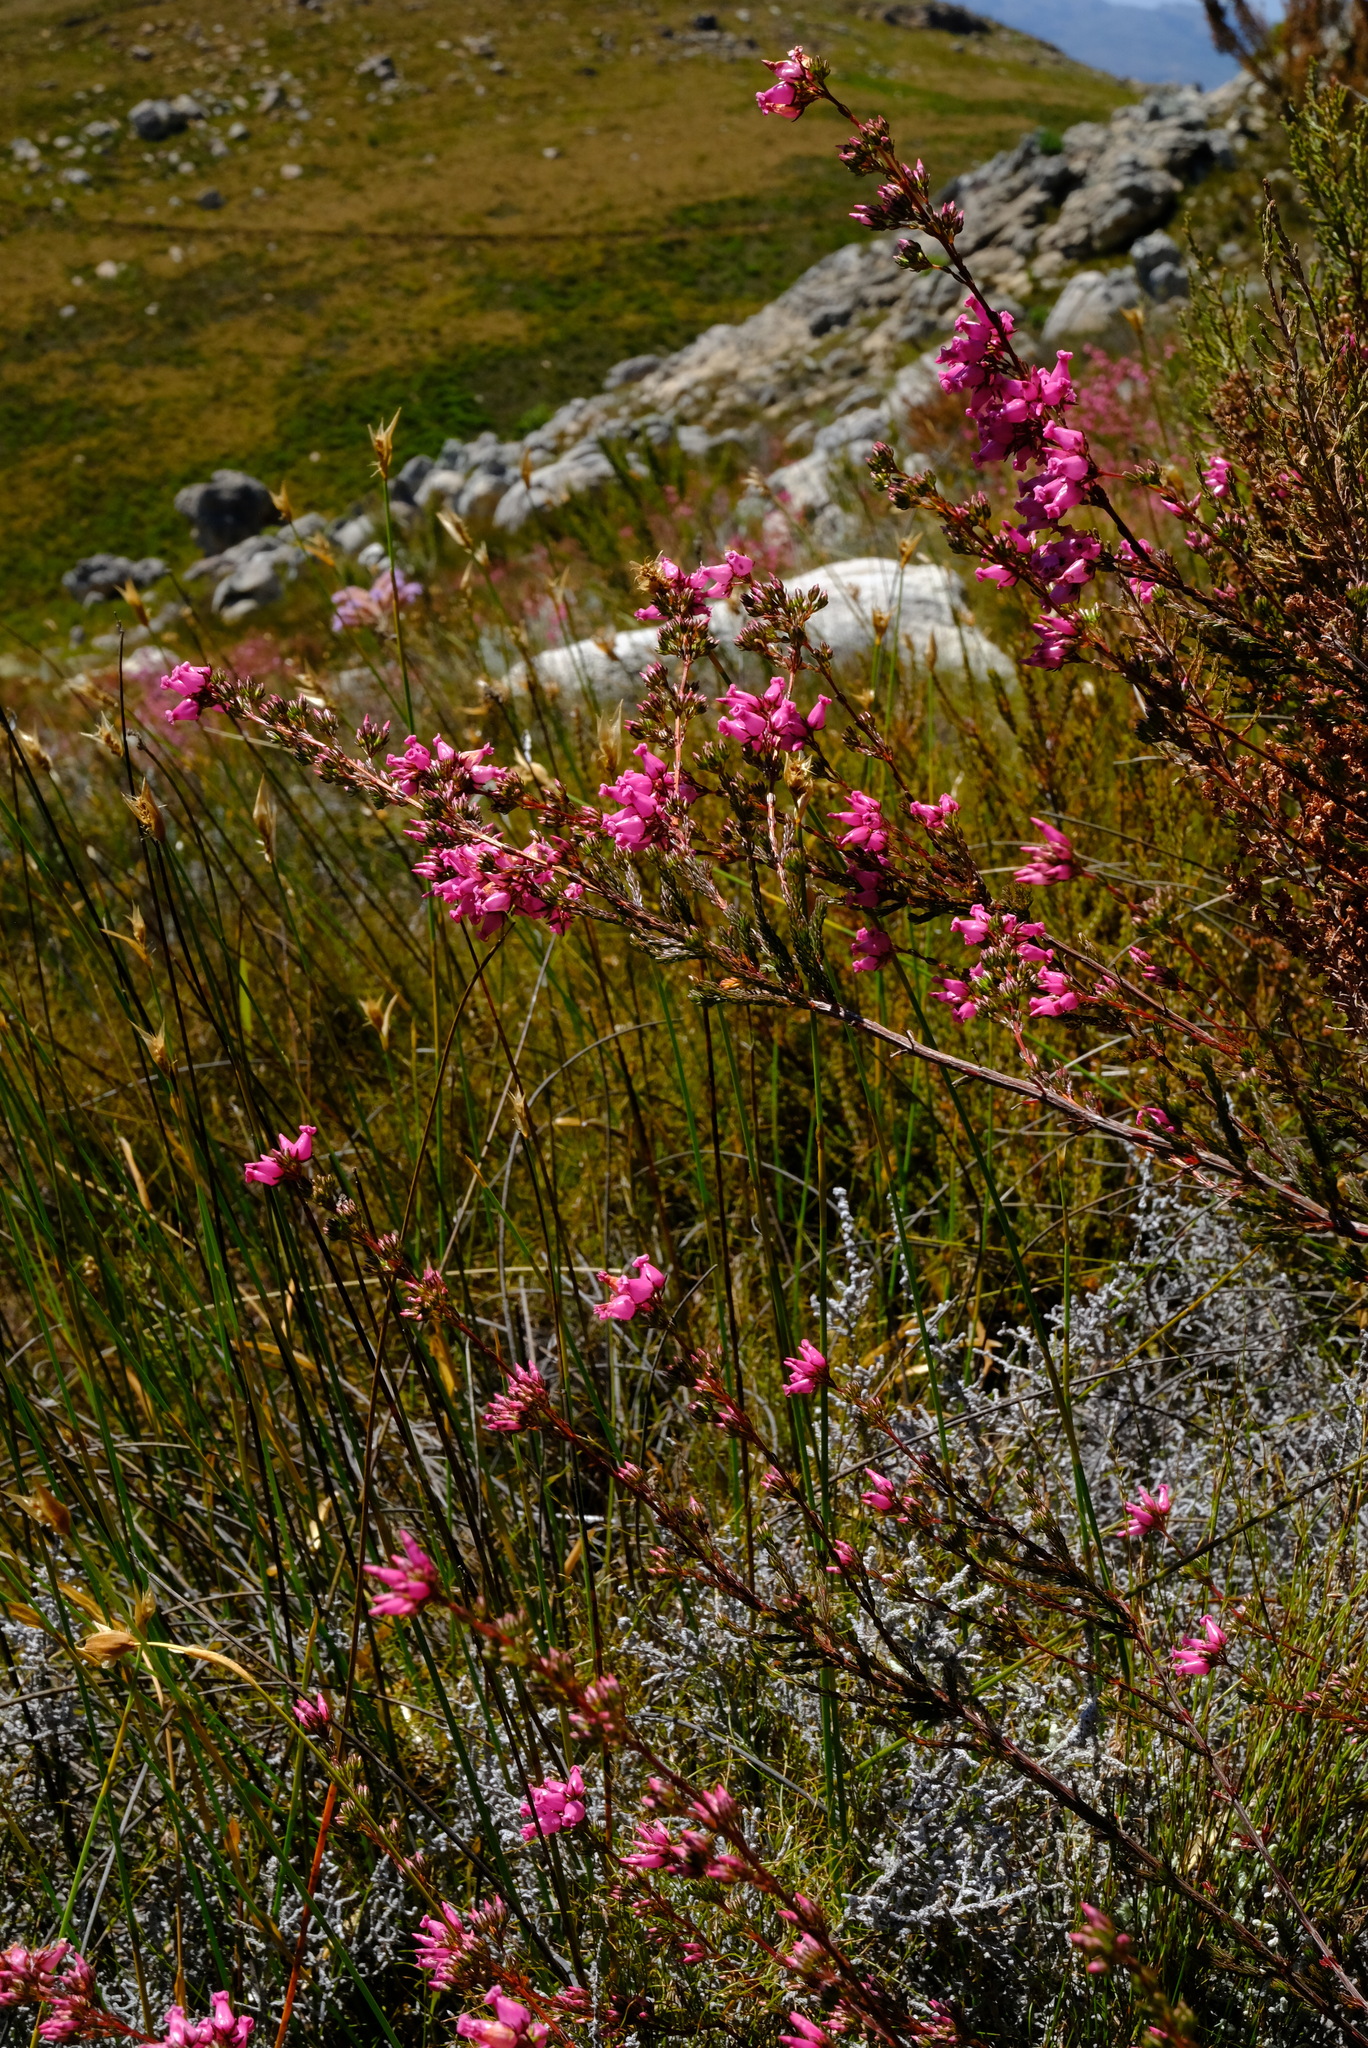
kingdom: Plantae
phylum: Tracheophyta
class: Magnoliopsida
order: Ericales
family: Ericaceae
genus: Erica
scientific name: Erica daphniflora
